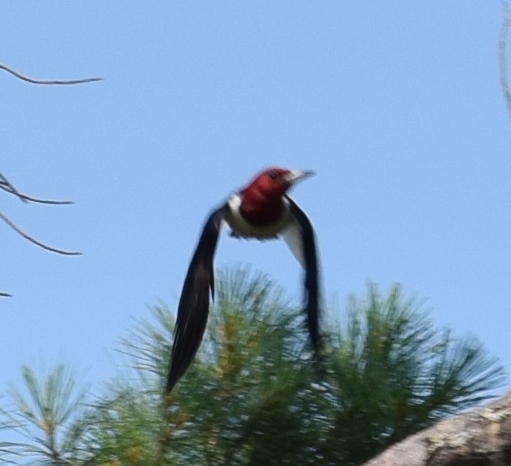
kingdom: Animalia
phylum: Chordata
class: Aves
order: Piciformes
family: Picidae
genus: Melanerpes
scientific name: Melanerpes erythrocephalus
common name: Red-headed woodpecker
